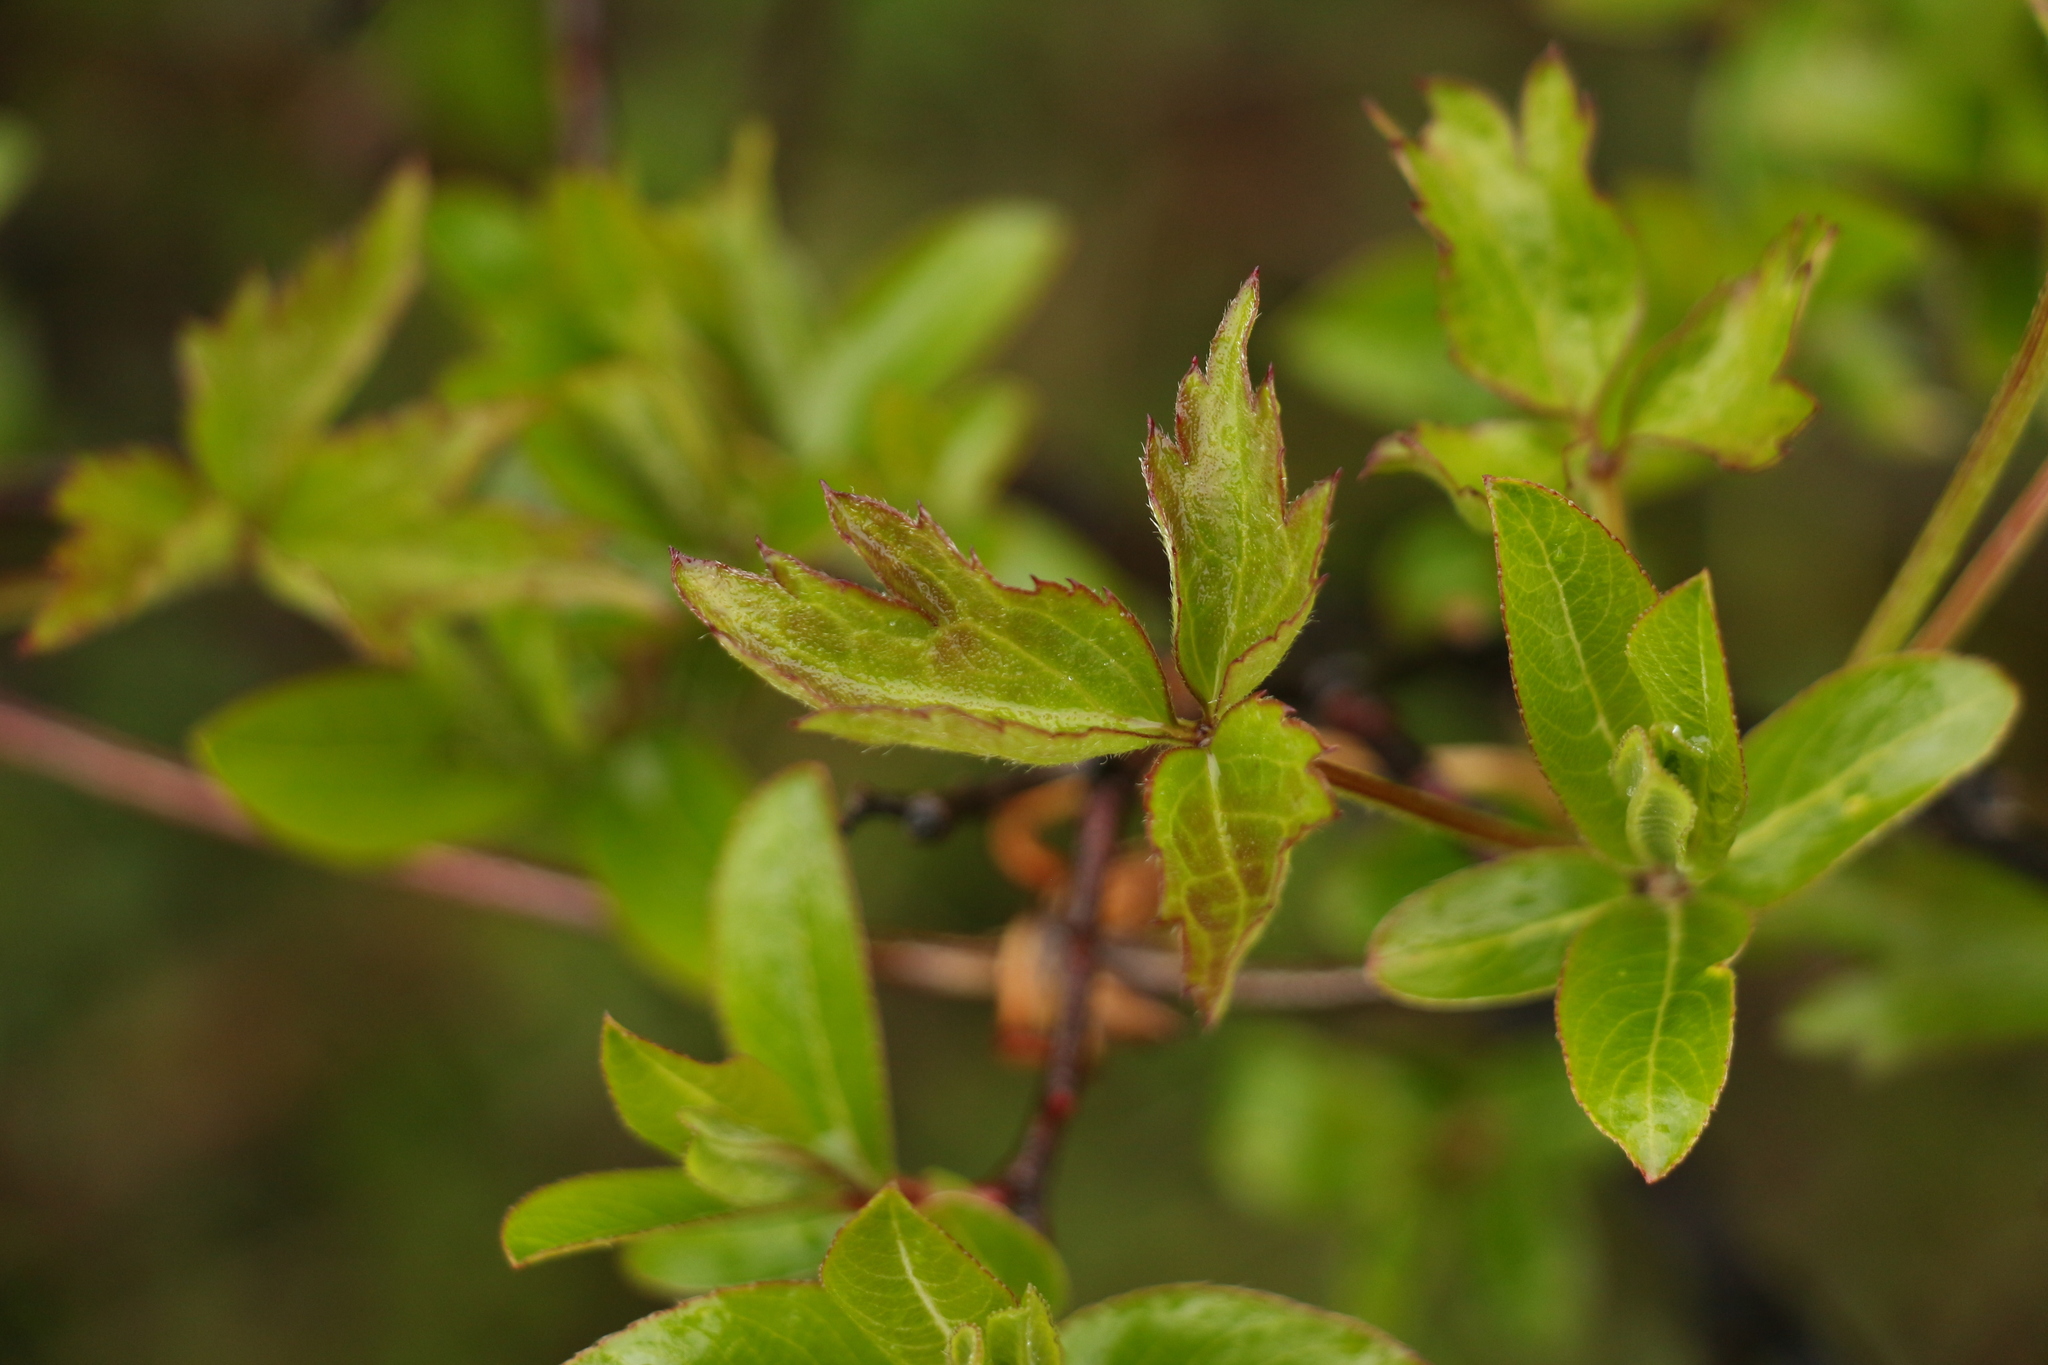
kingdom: Plantae
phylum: Tracheophyta
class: Magnoliopsida
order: Ranunculales
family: Ranunculaceae
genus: Clematis
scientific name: Clematis montana
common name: Himalayan clematis
